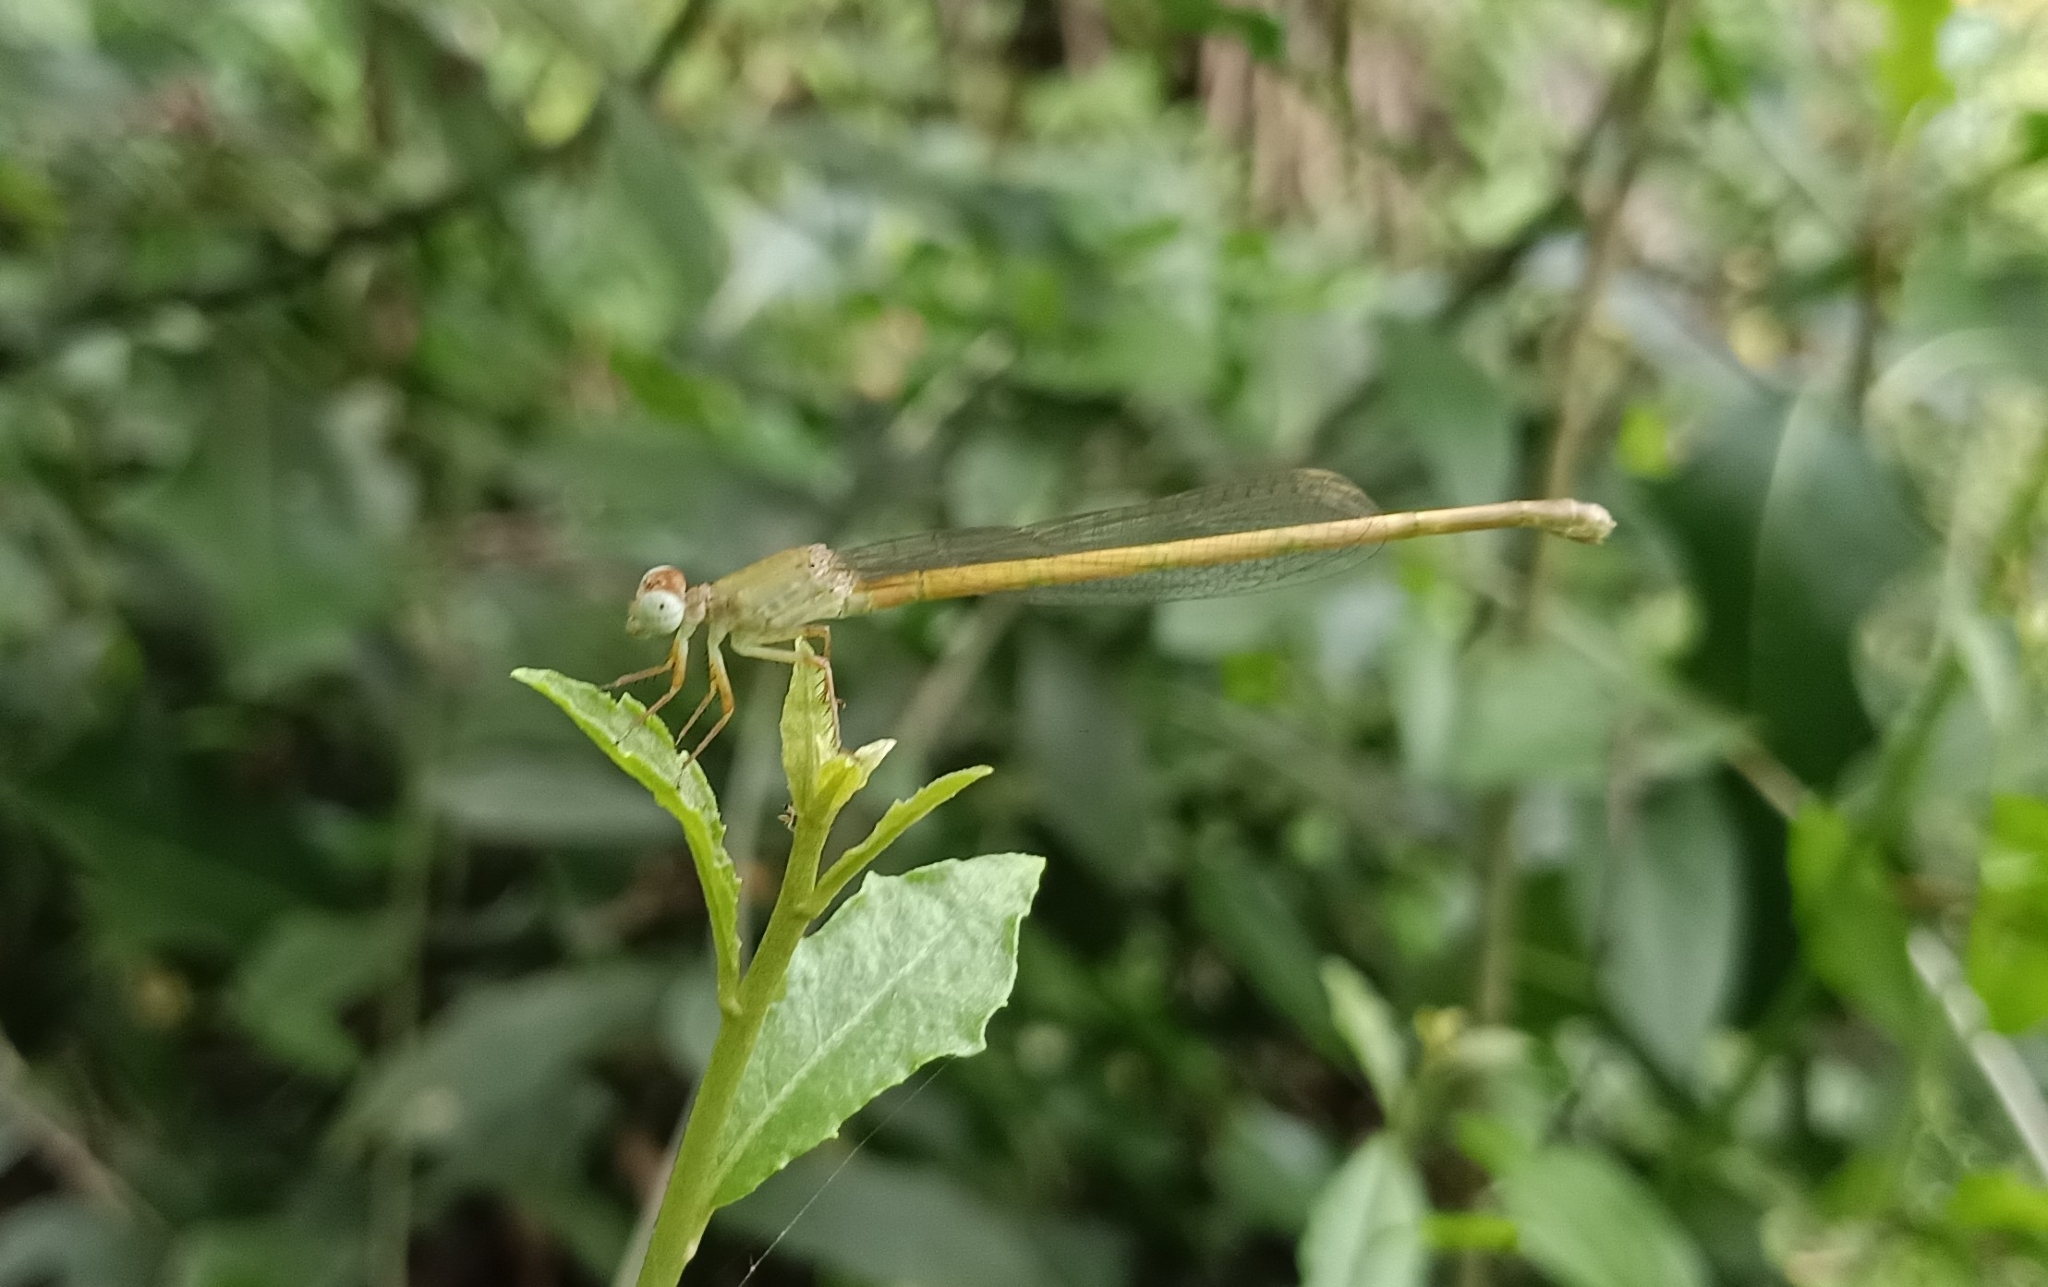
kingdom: Animalia
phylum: Arthropoda
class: Insecta
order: Odonata
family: Coenagrionidae
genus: Ceriagrion
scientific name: Ceriagrion coromandelianum
